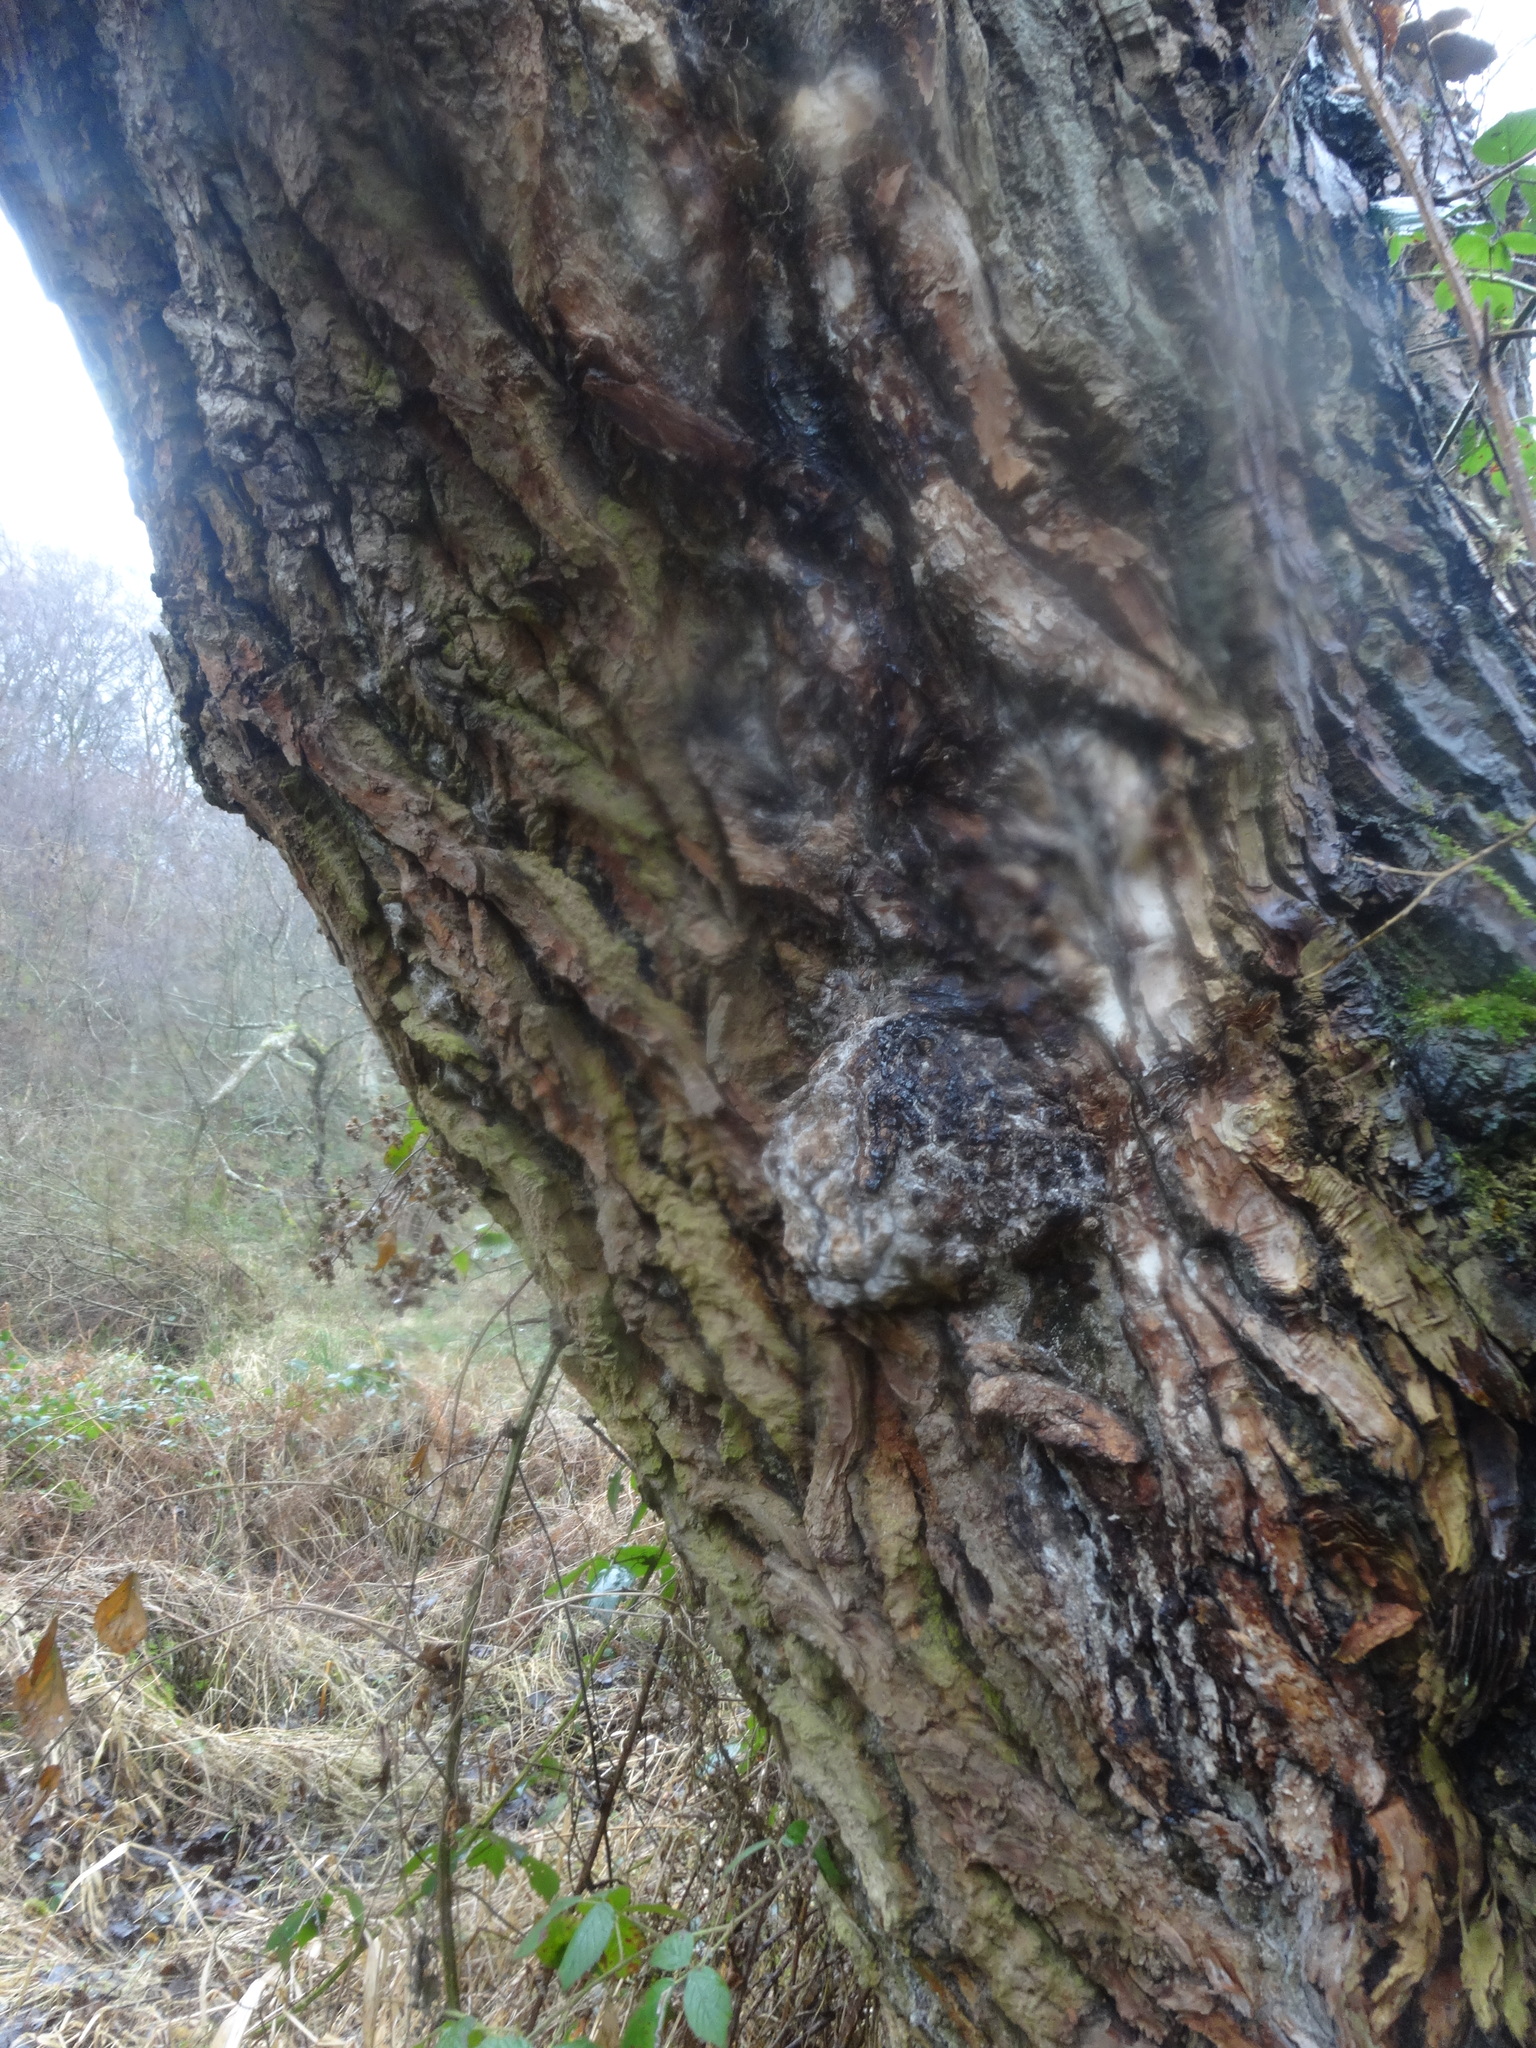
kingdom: Plantae
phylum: Tracheophyta
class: Magnoliopsida
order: Malpighiales
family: Salicaceae
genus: Populus
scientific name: Populus nigra
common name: Black poplar
